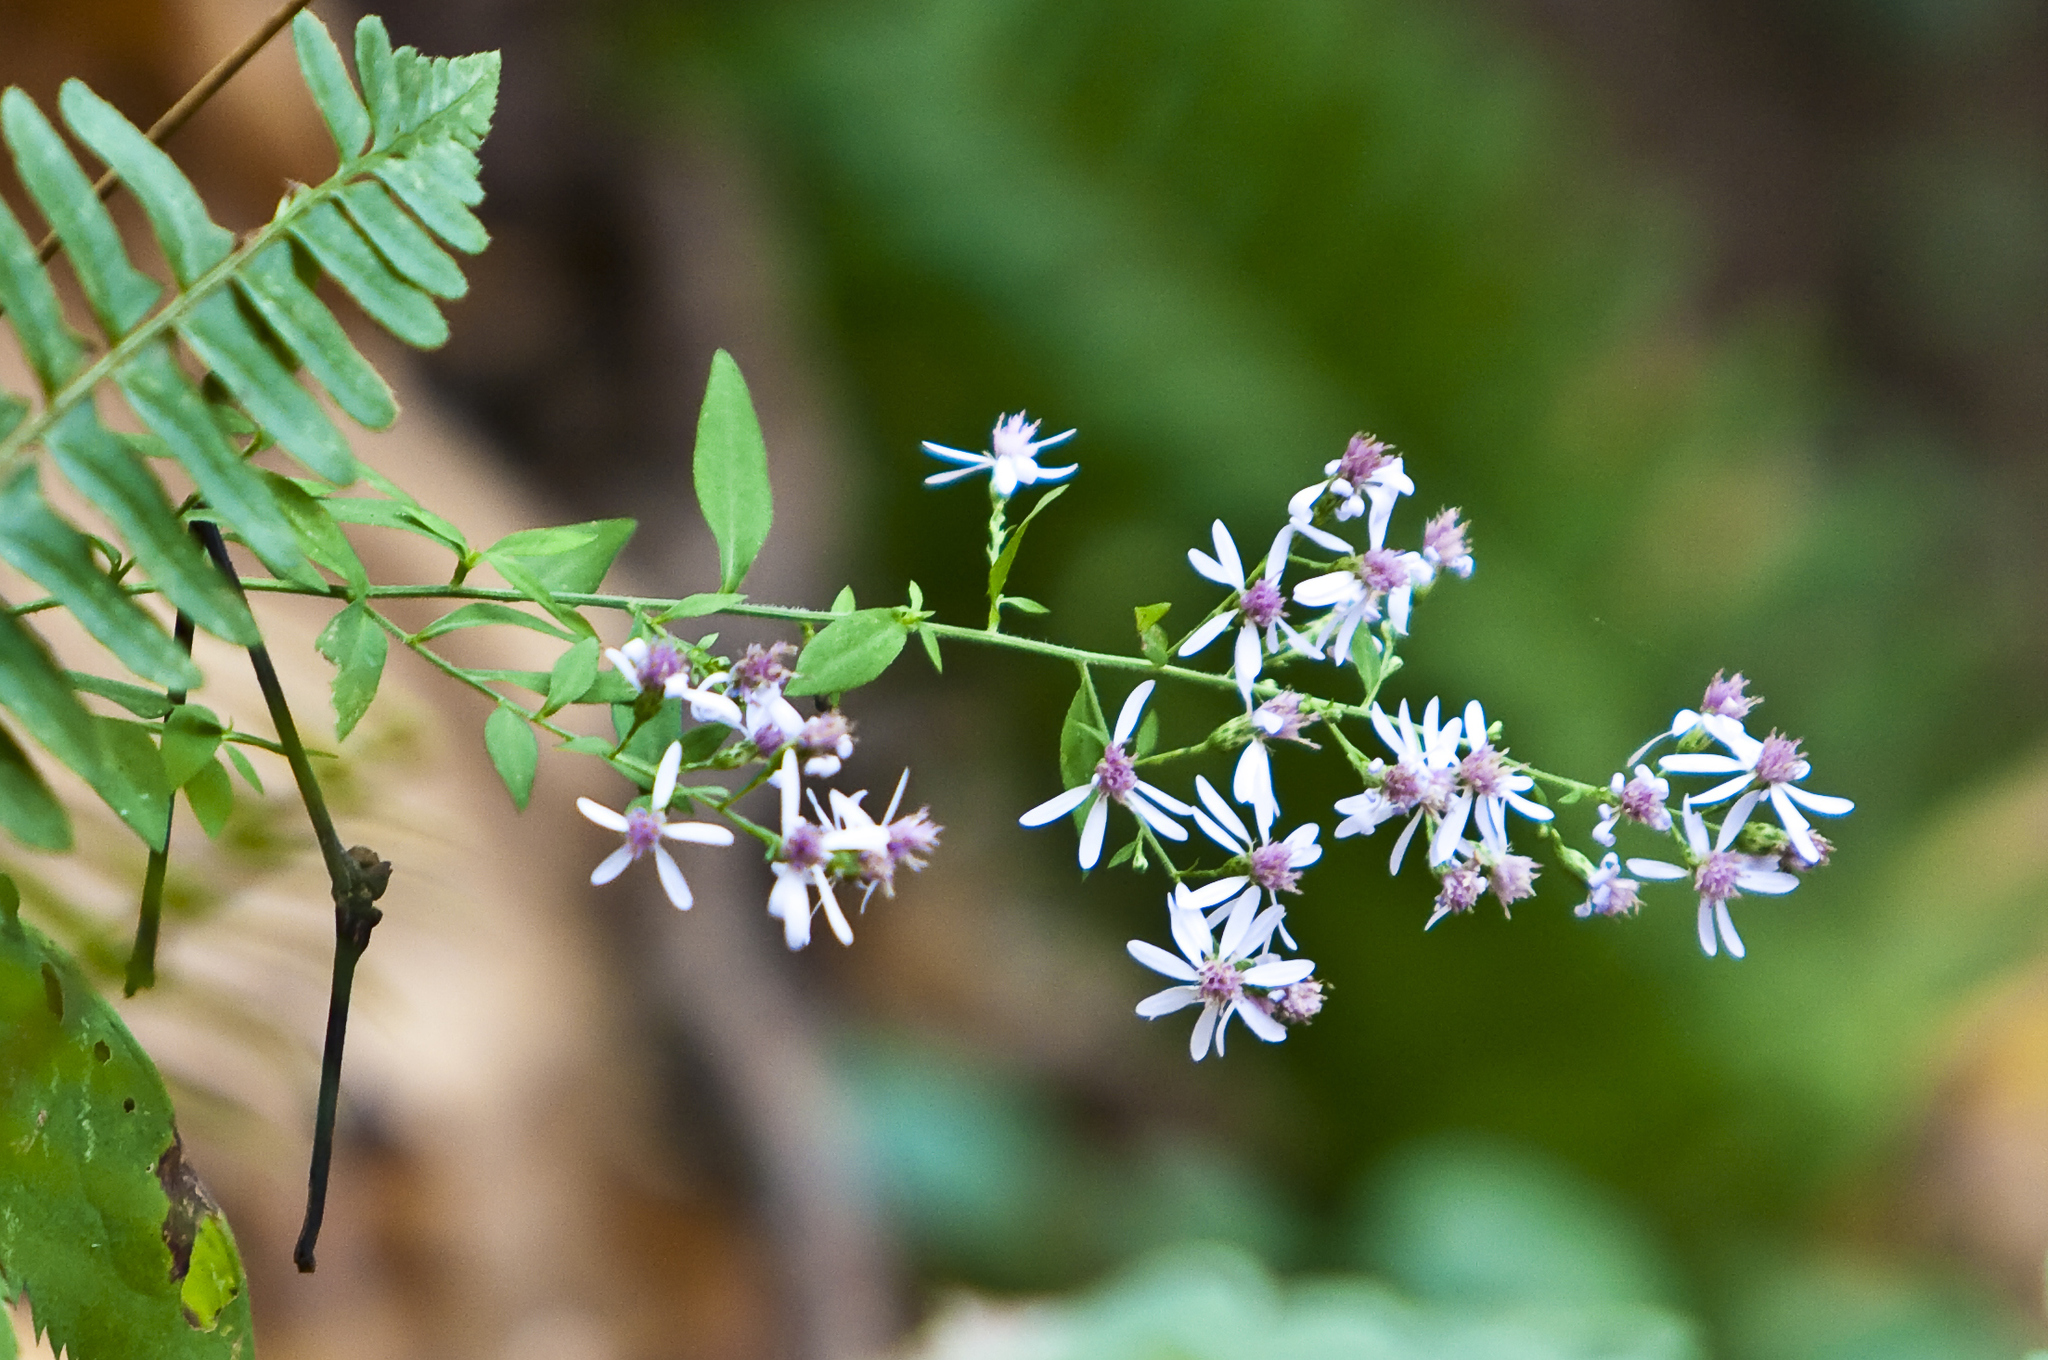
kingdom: Plantae
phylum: Tracheophyta
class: Magnoliopsida
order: Asterales
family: Asteraceae
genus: Symphyotrichum
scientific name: Symphyotrichum shortii
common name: Short's aster
